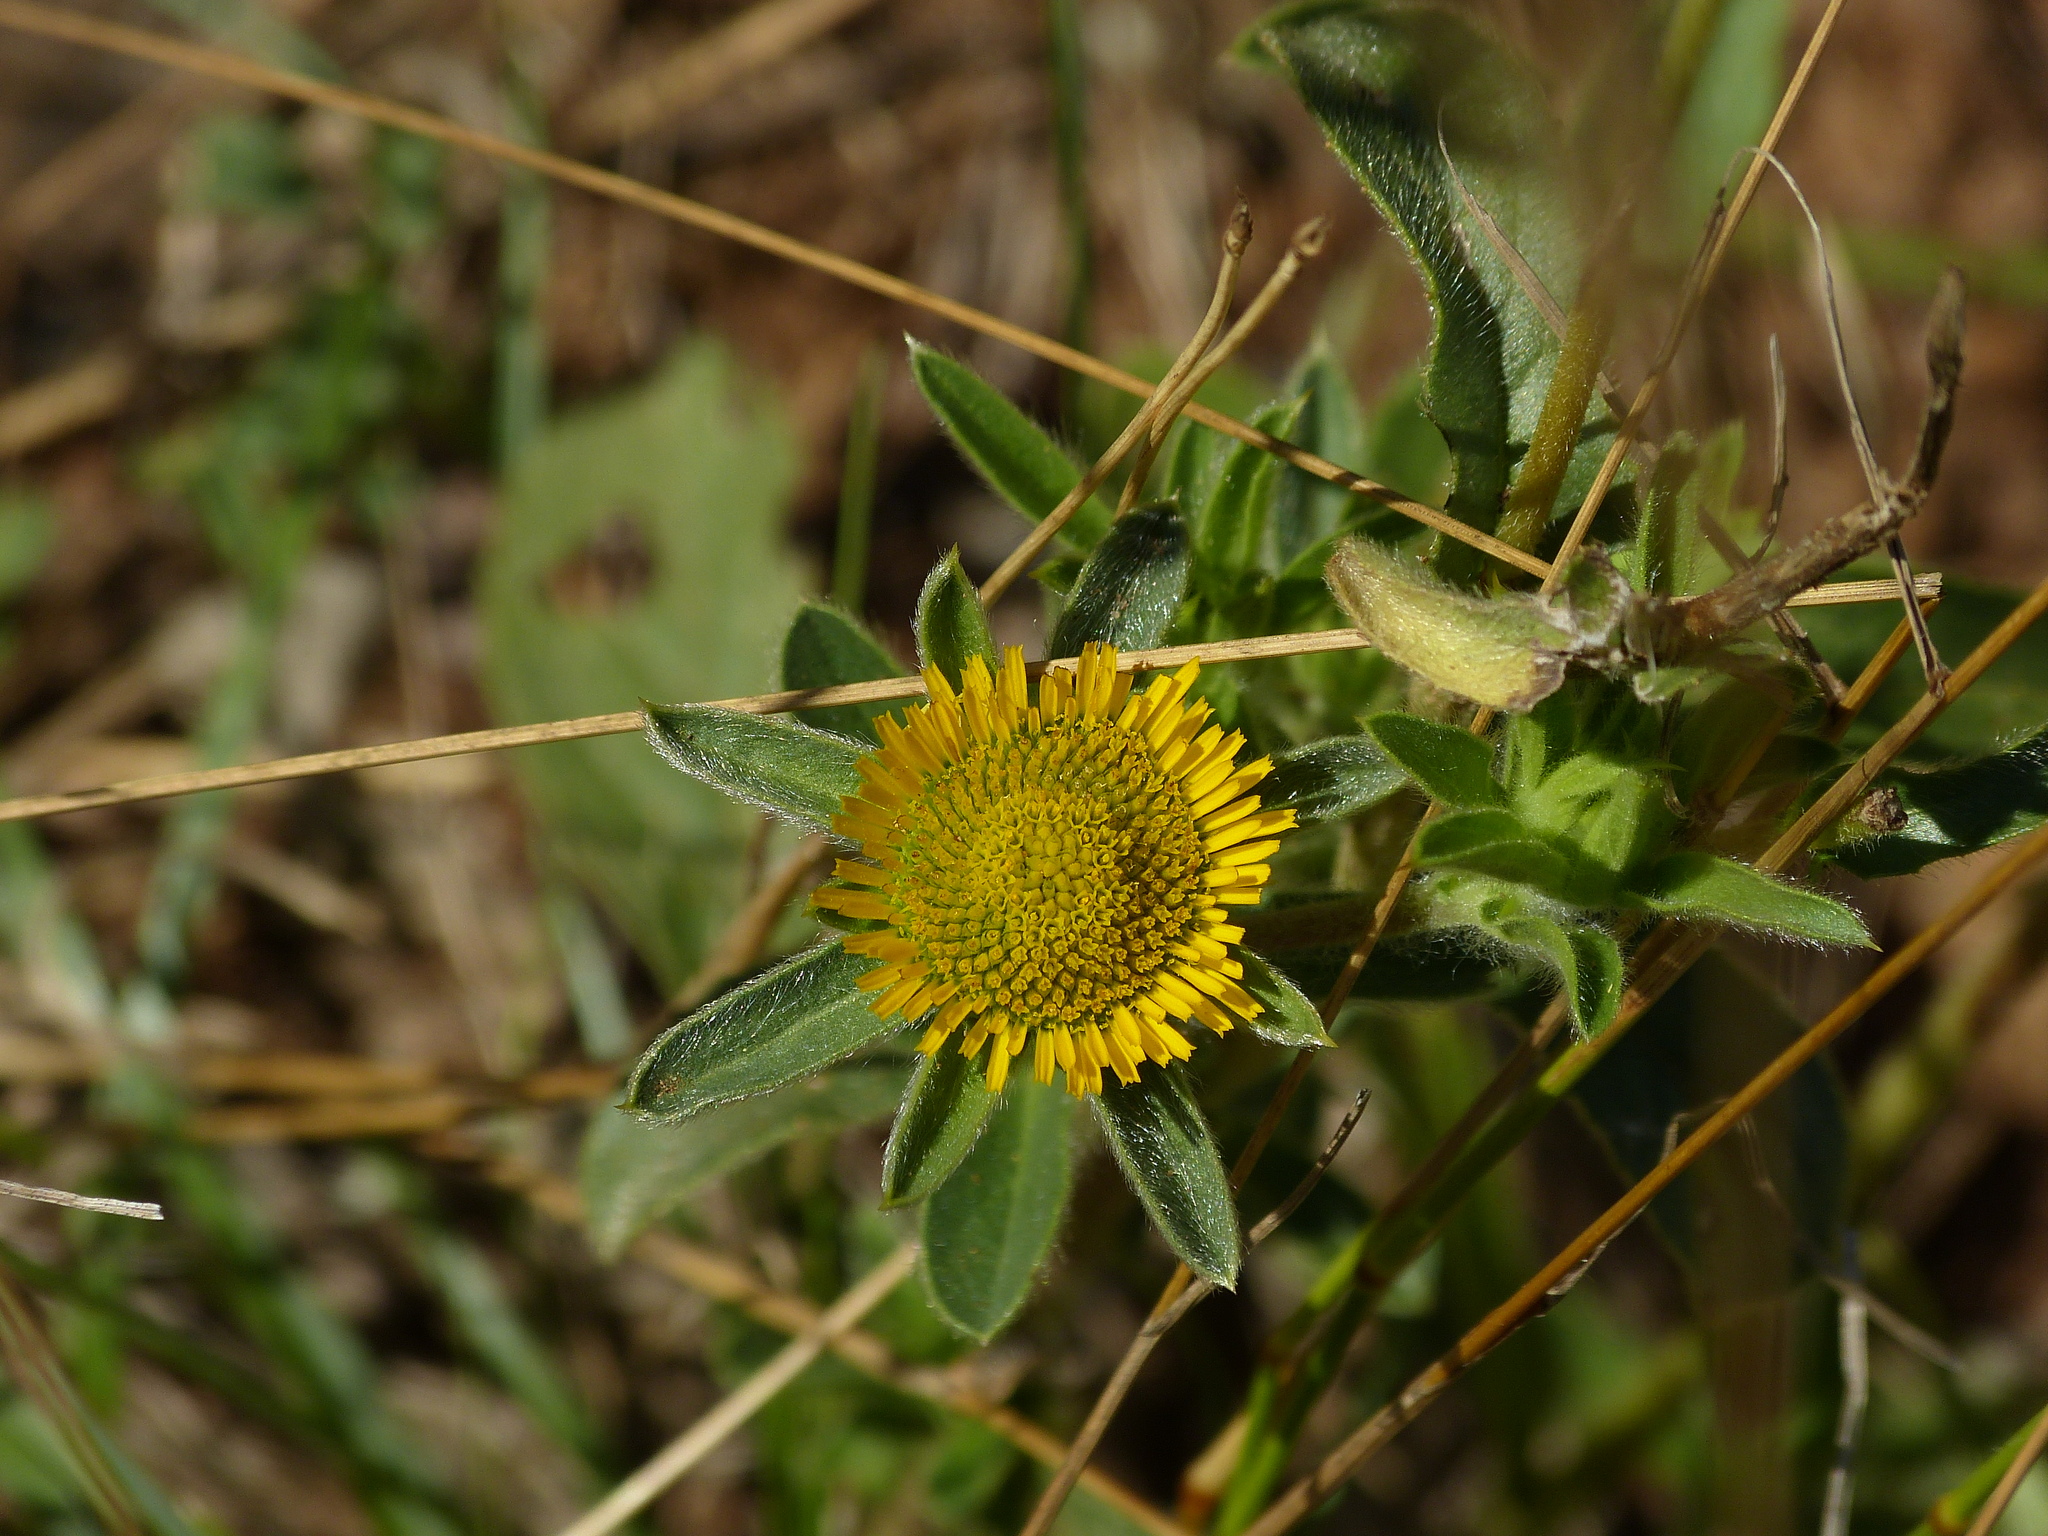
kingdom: Plantae
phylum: Tracheophyta
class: Magnoliopsida
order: Asterales
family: Asteraceae
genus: Pallenis
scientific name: Pallenis spinosa
